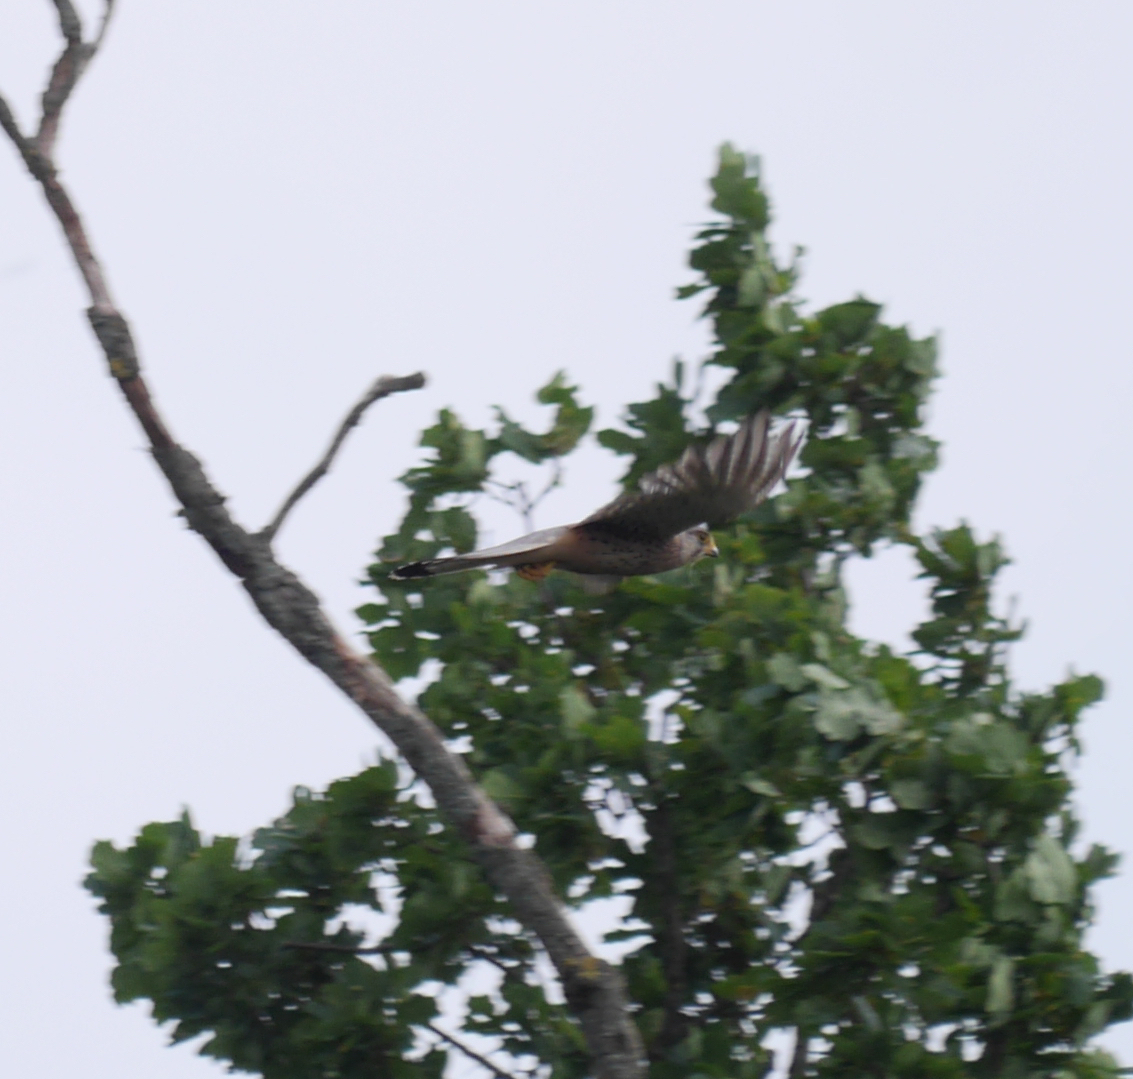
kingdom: Animalia
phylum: Chordata
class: Aves
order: Falconiformes
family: Falconidae
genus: Falco
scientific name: Falco tinnunculus
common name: Common kestrel
